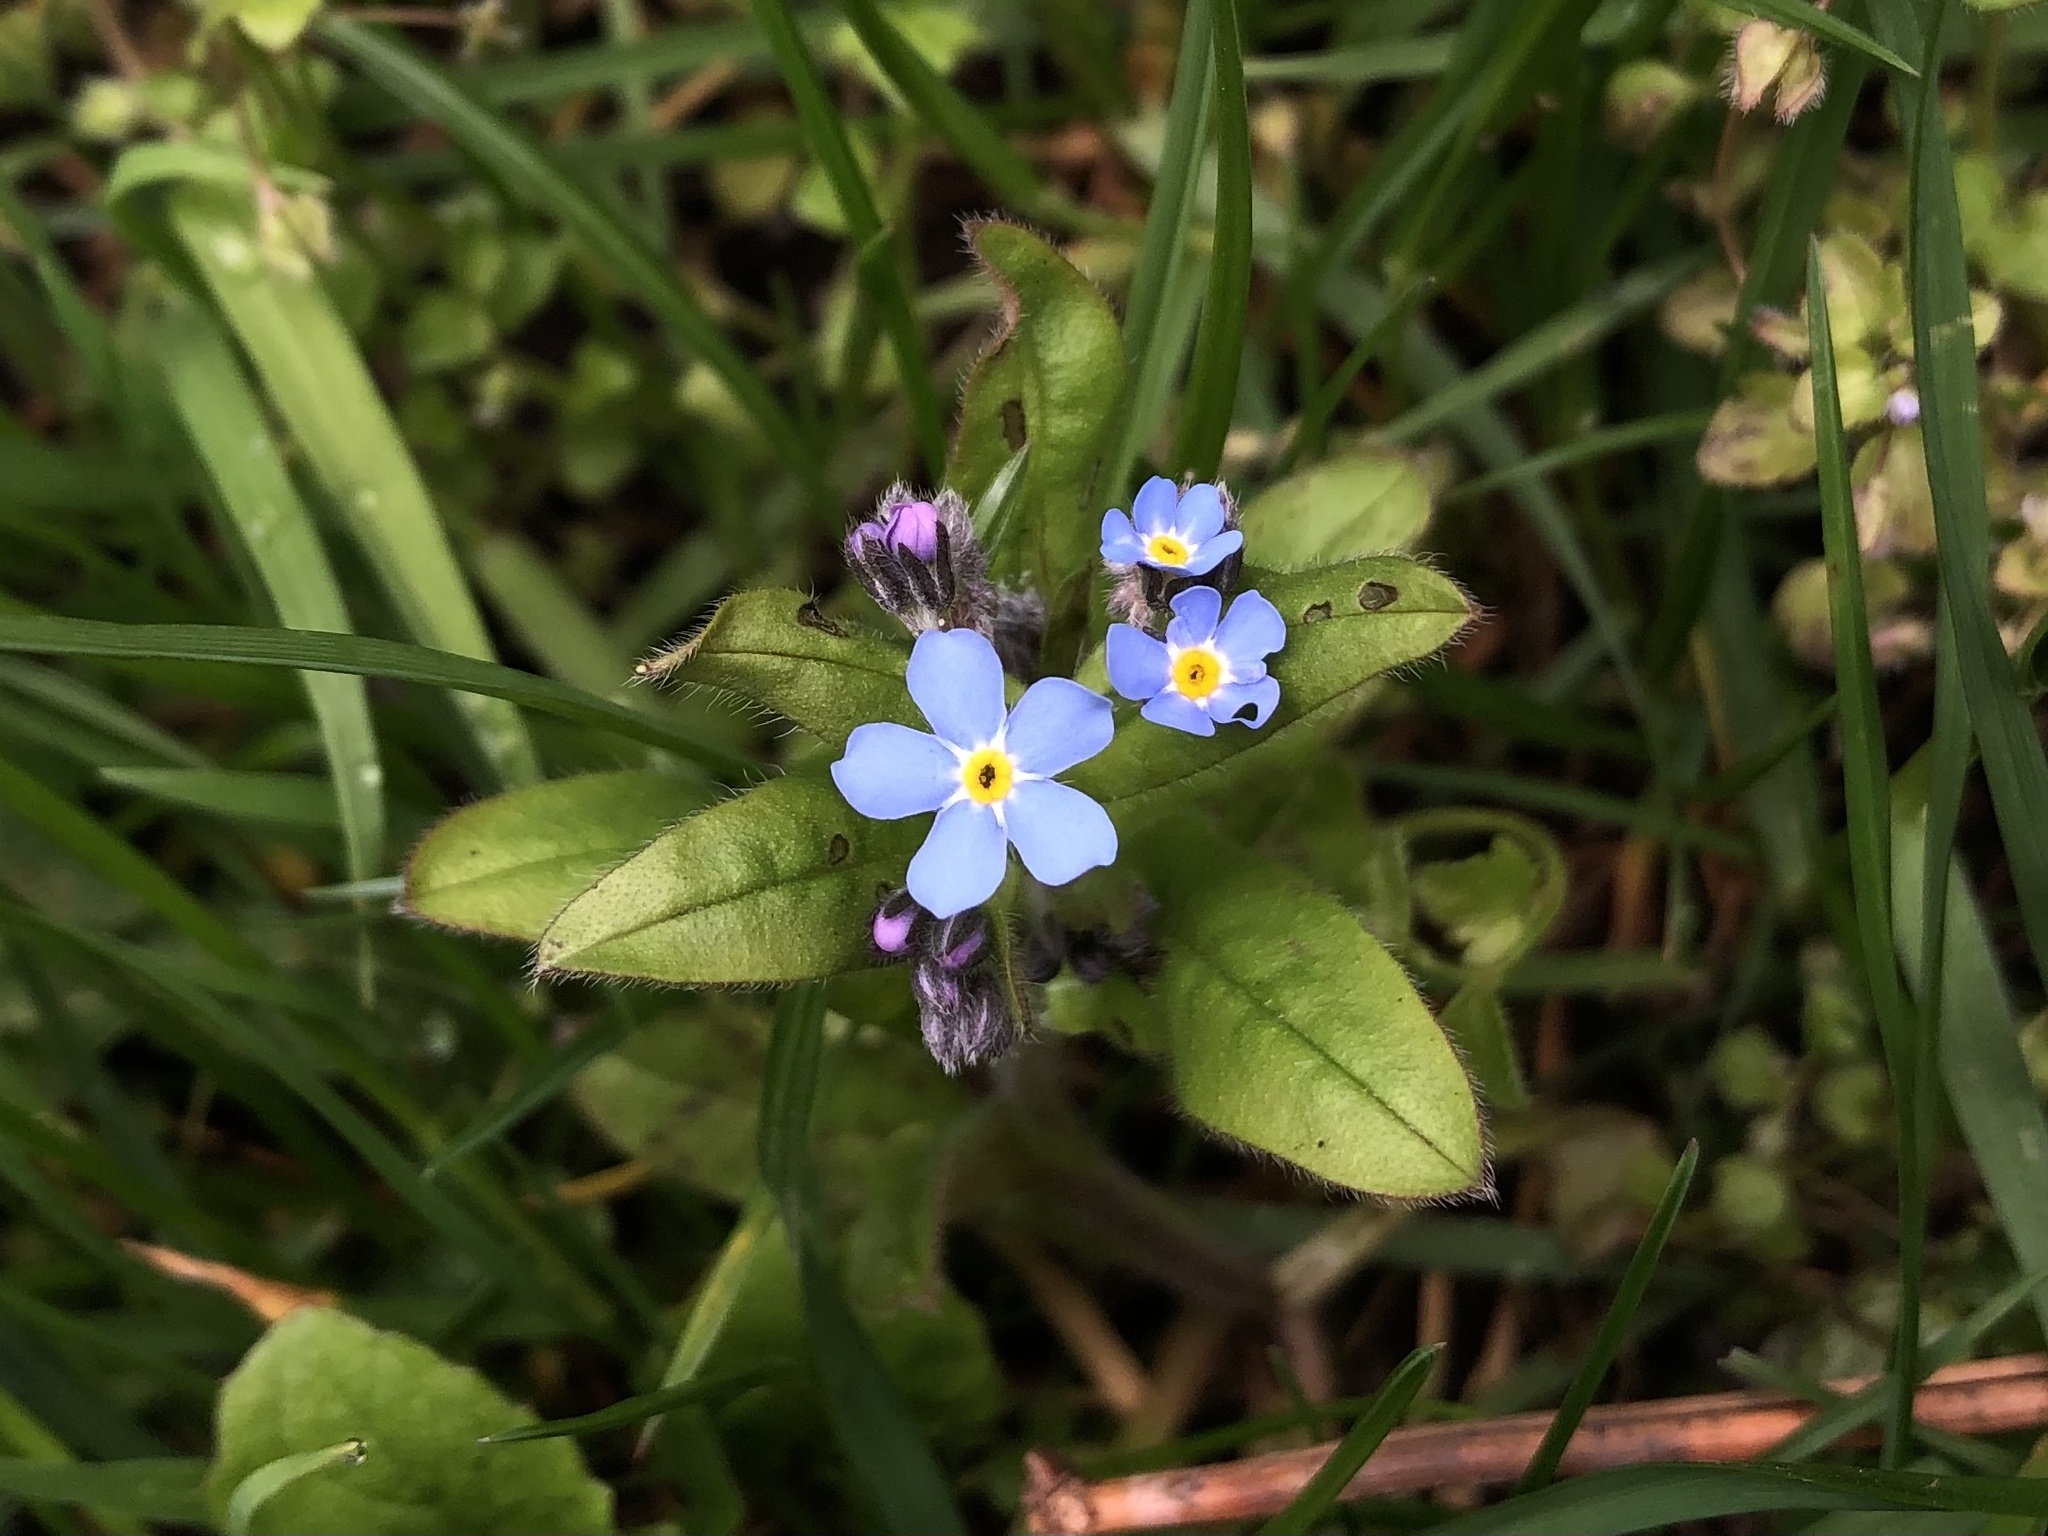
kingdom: Plantae
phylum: Tracheophyta
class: Magnoliopsida
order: Boraginales
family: Boraginaceae
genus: Myosotis
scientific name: Myosotis sylvatica
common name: Wood forget-me-not
